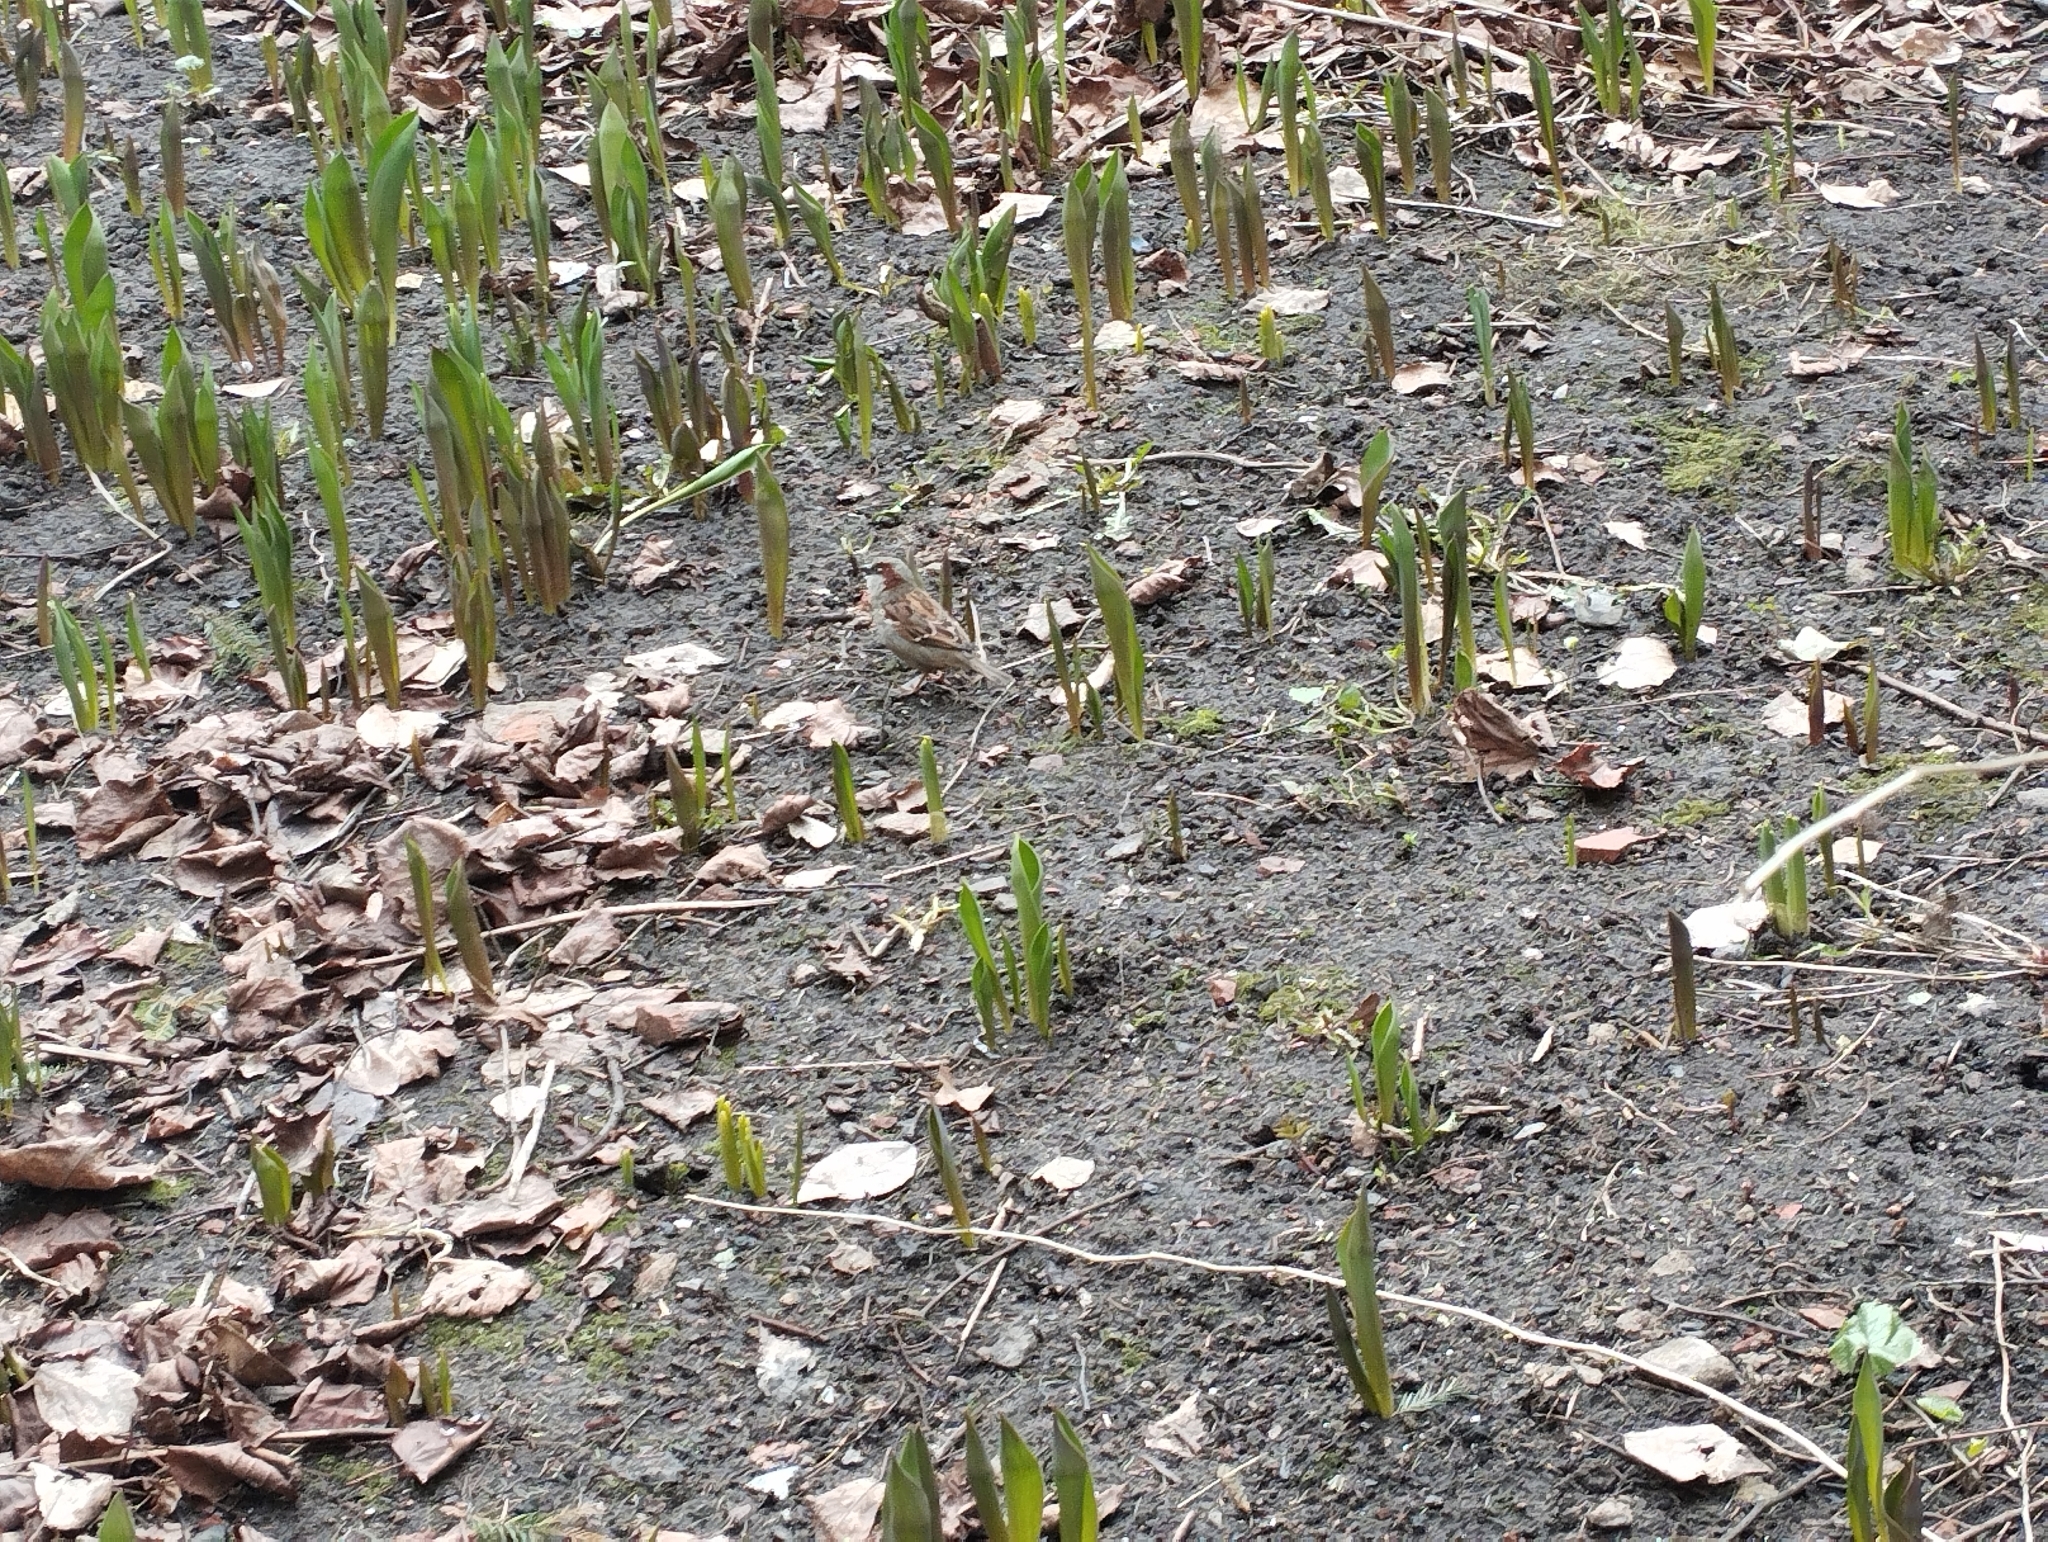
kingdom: Animalia
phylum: Chordata
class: Aves
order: Passeriformes
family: Passeridae
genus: Passer
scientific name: Passer domesticus
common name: House sparrow
